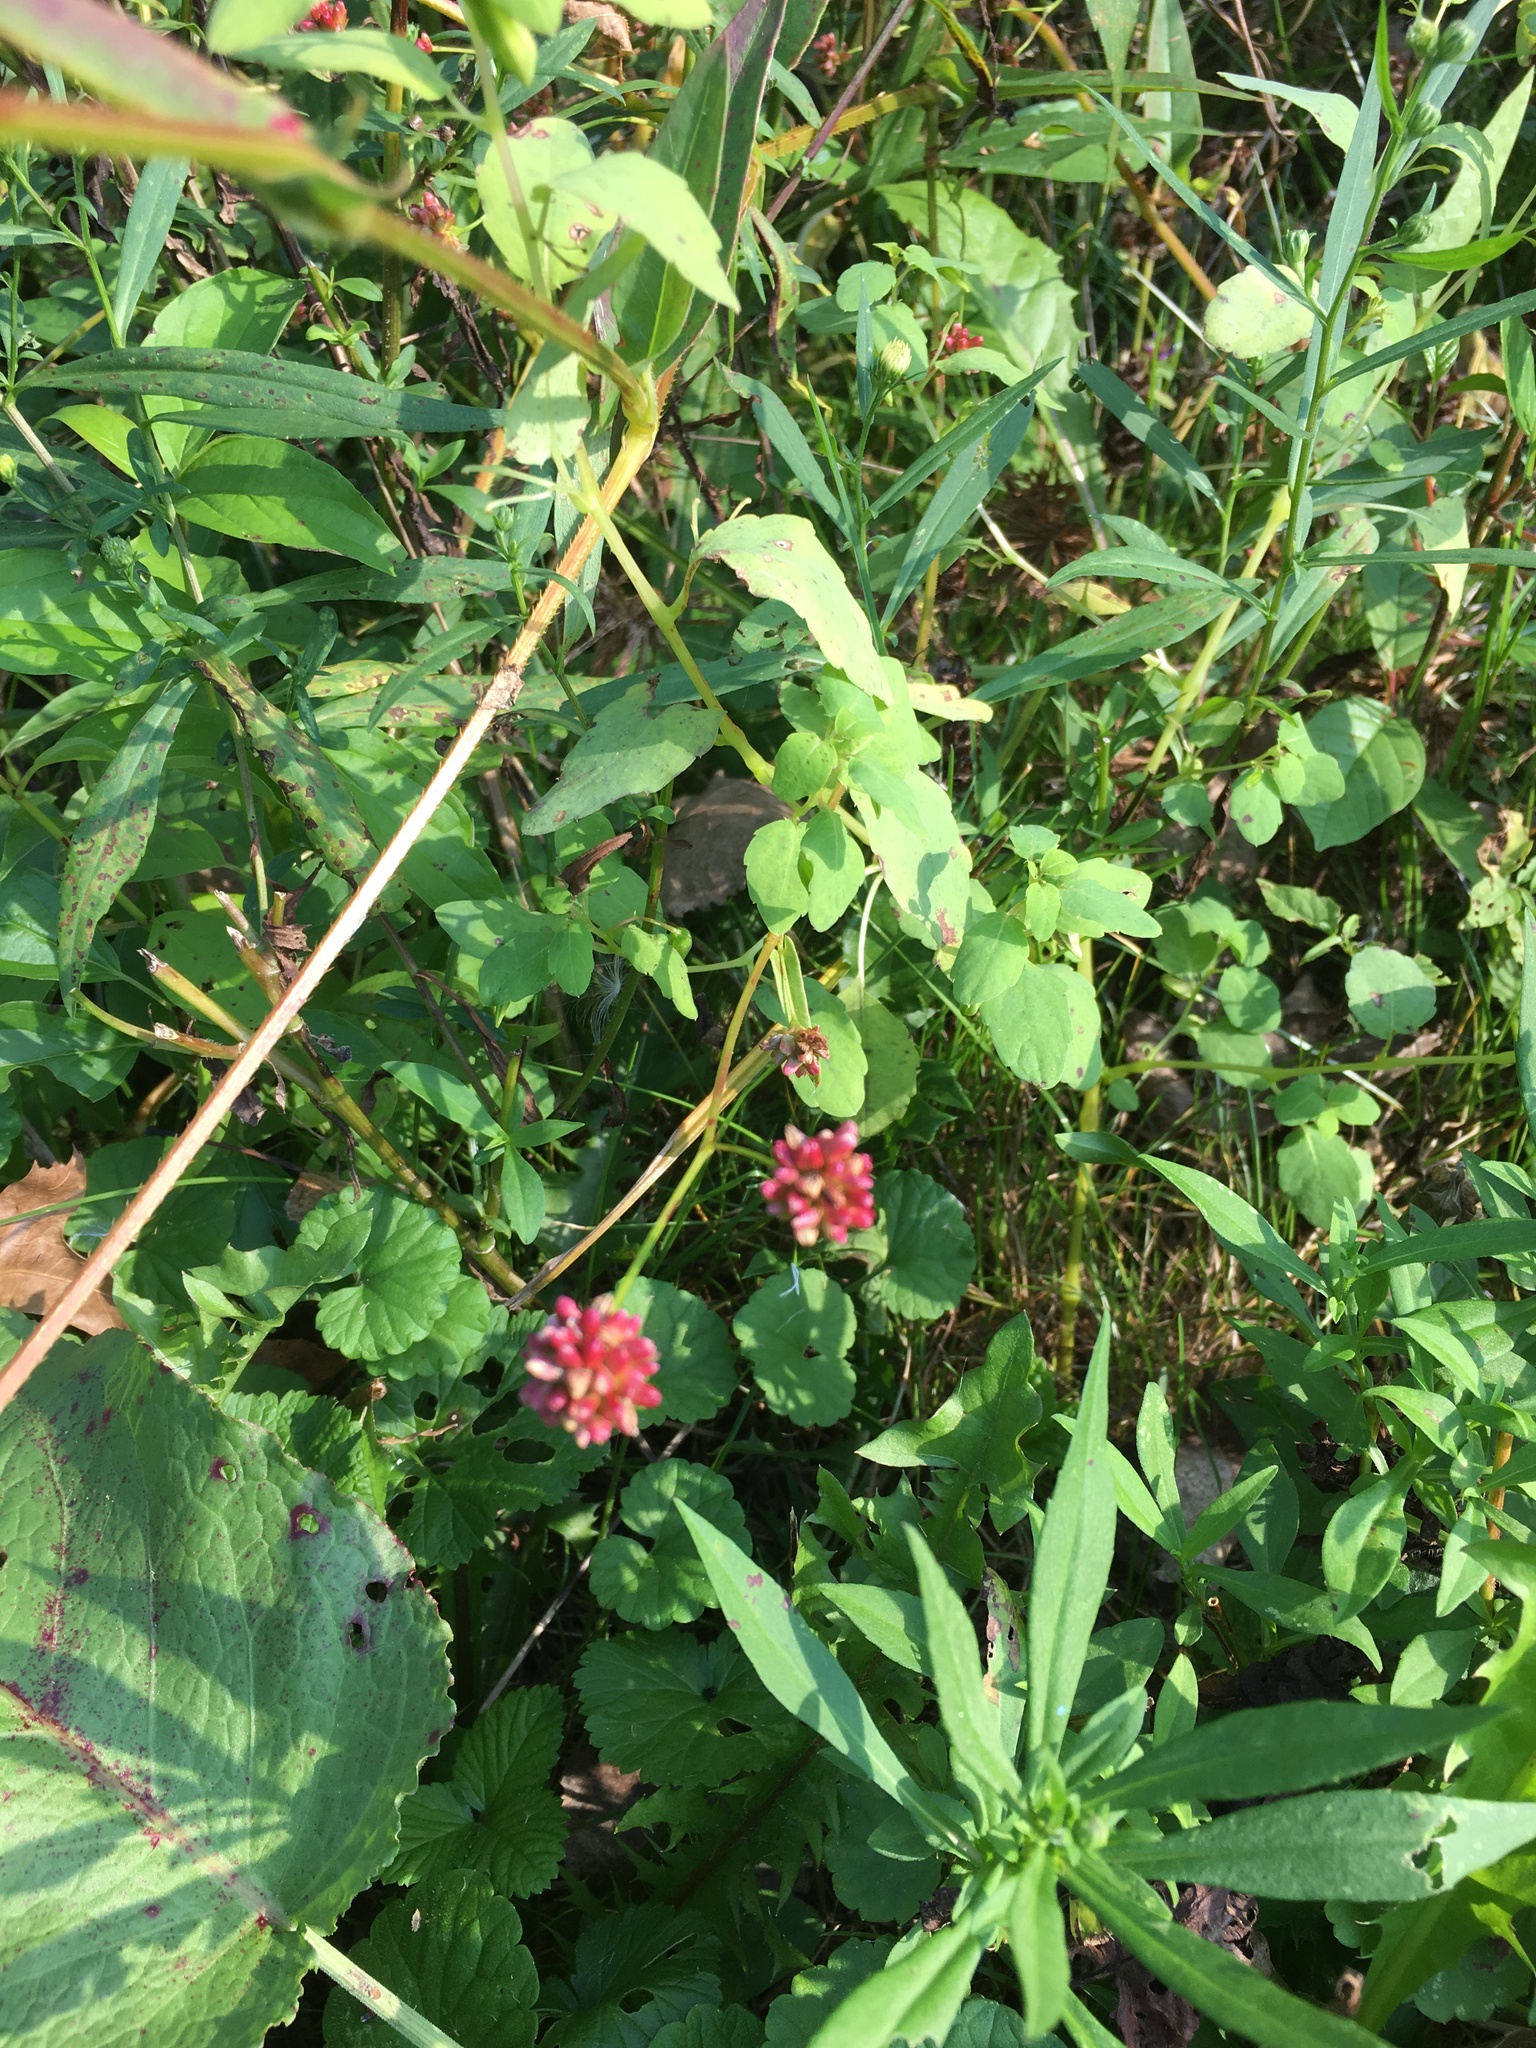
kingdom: Plantae
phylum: Tracheophyta
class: Magnoliopsida
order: Caryophyllales
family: Polygonaceae
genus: Persicaria
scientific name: Persicaria sagittata
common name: American tearthumb
